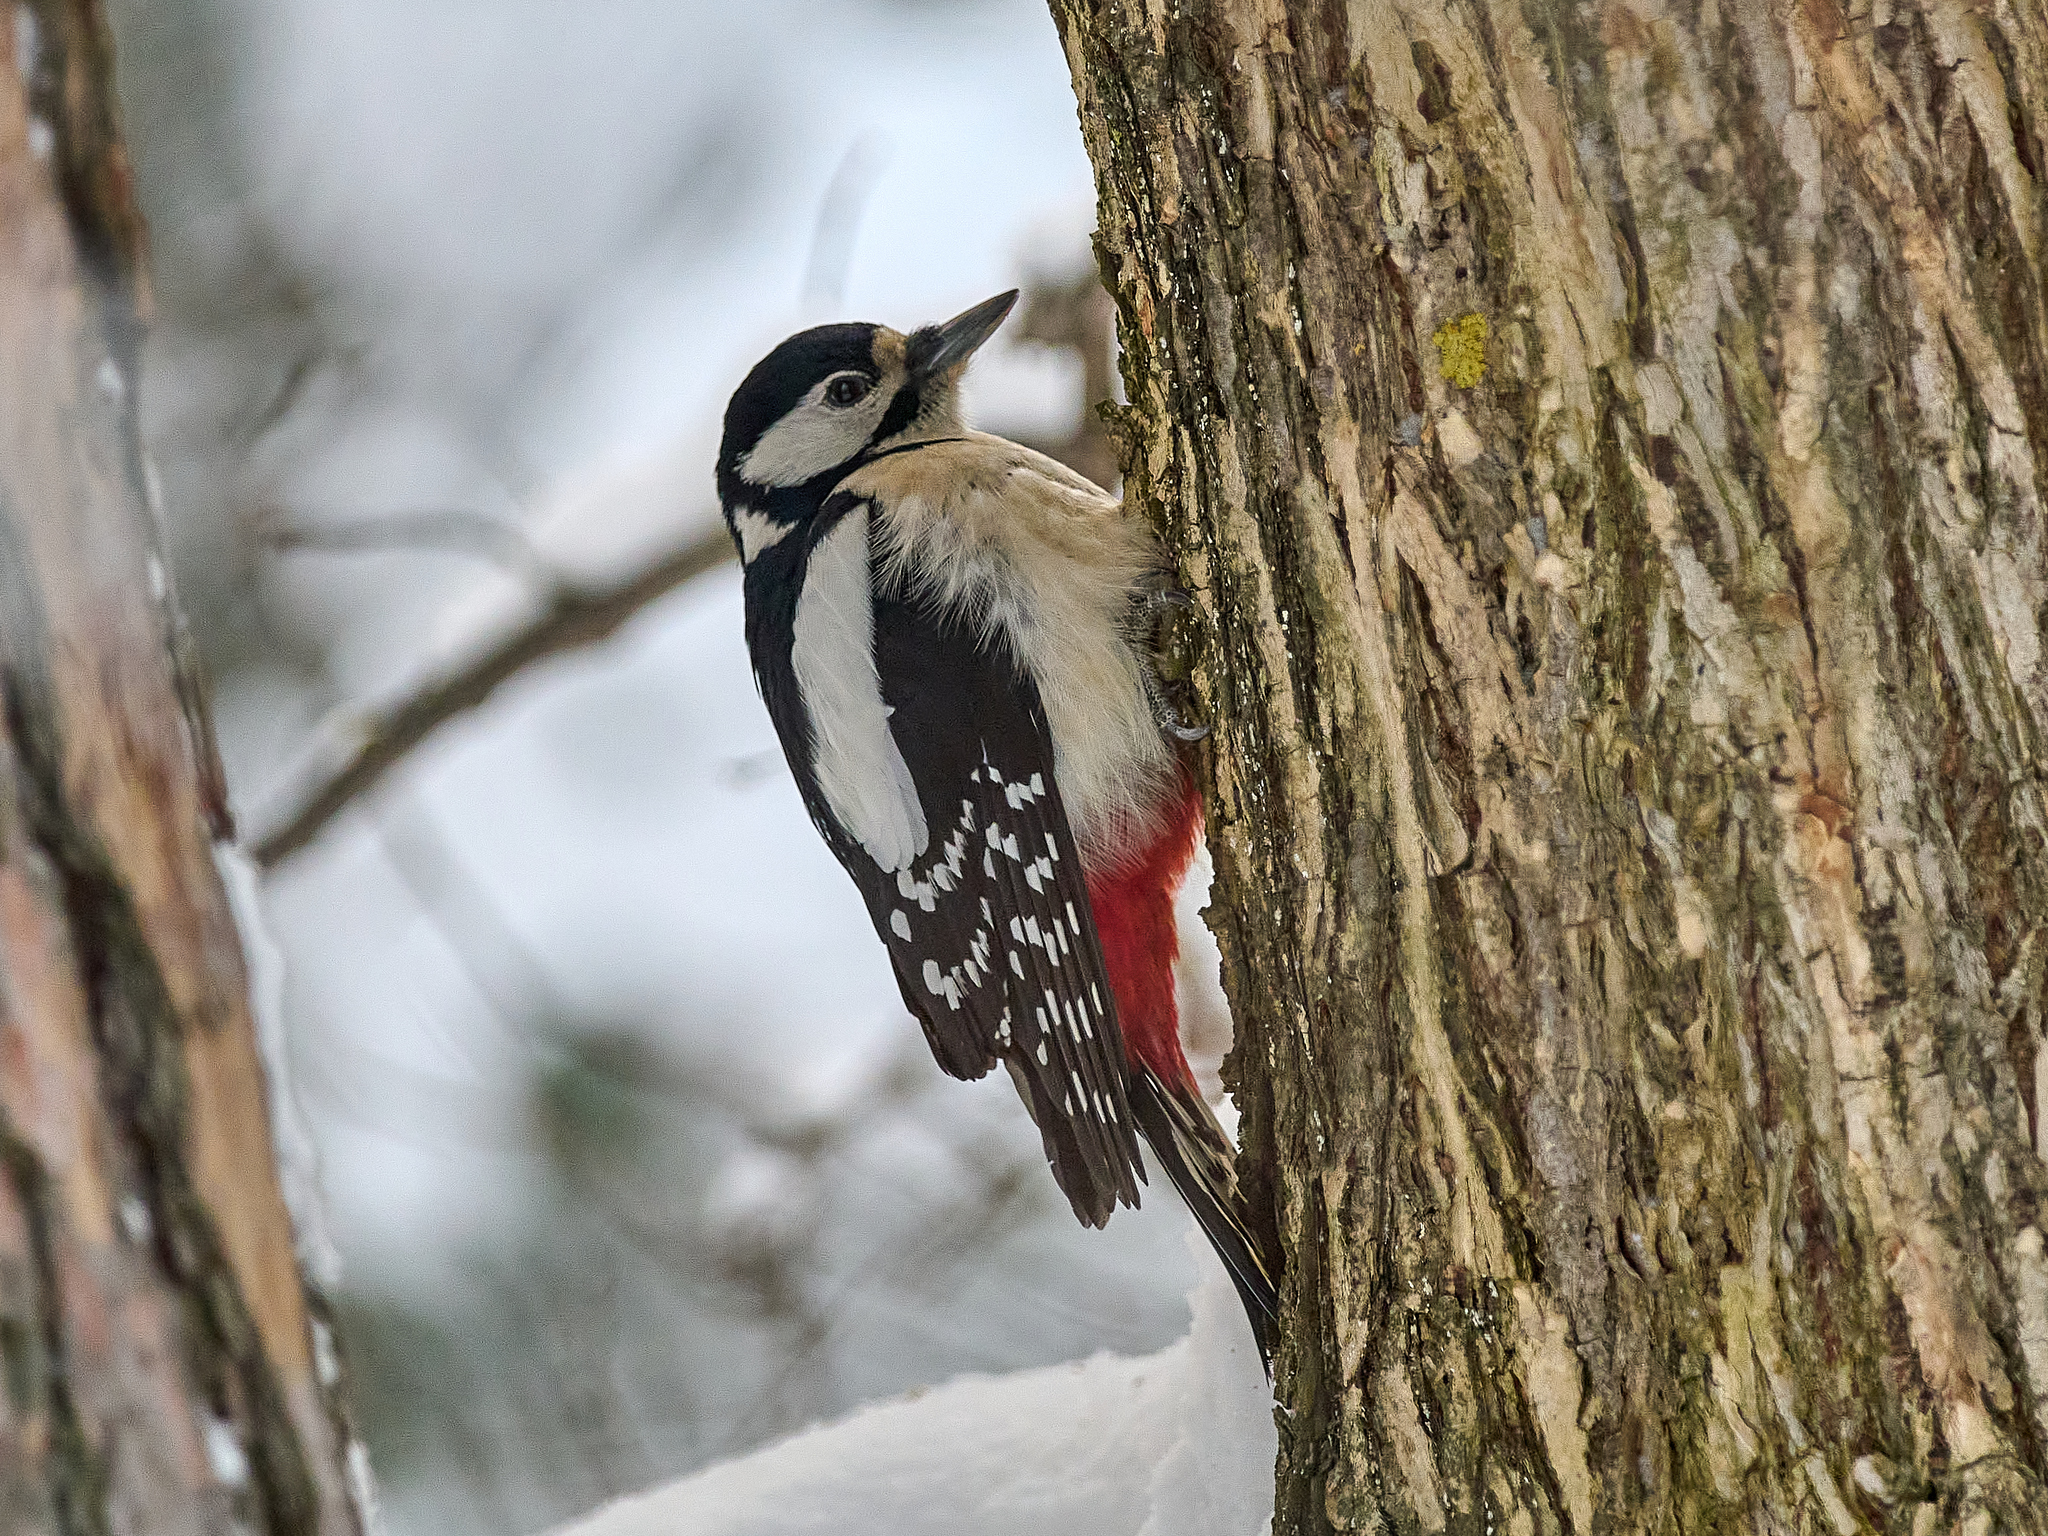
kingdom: Animalia
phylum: Chordata
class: Aves
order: Piciformes
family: Picidae
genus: Dendrocopos
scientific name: Dendrocopos major
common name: Great spotted woodpecker
